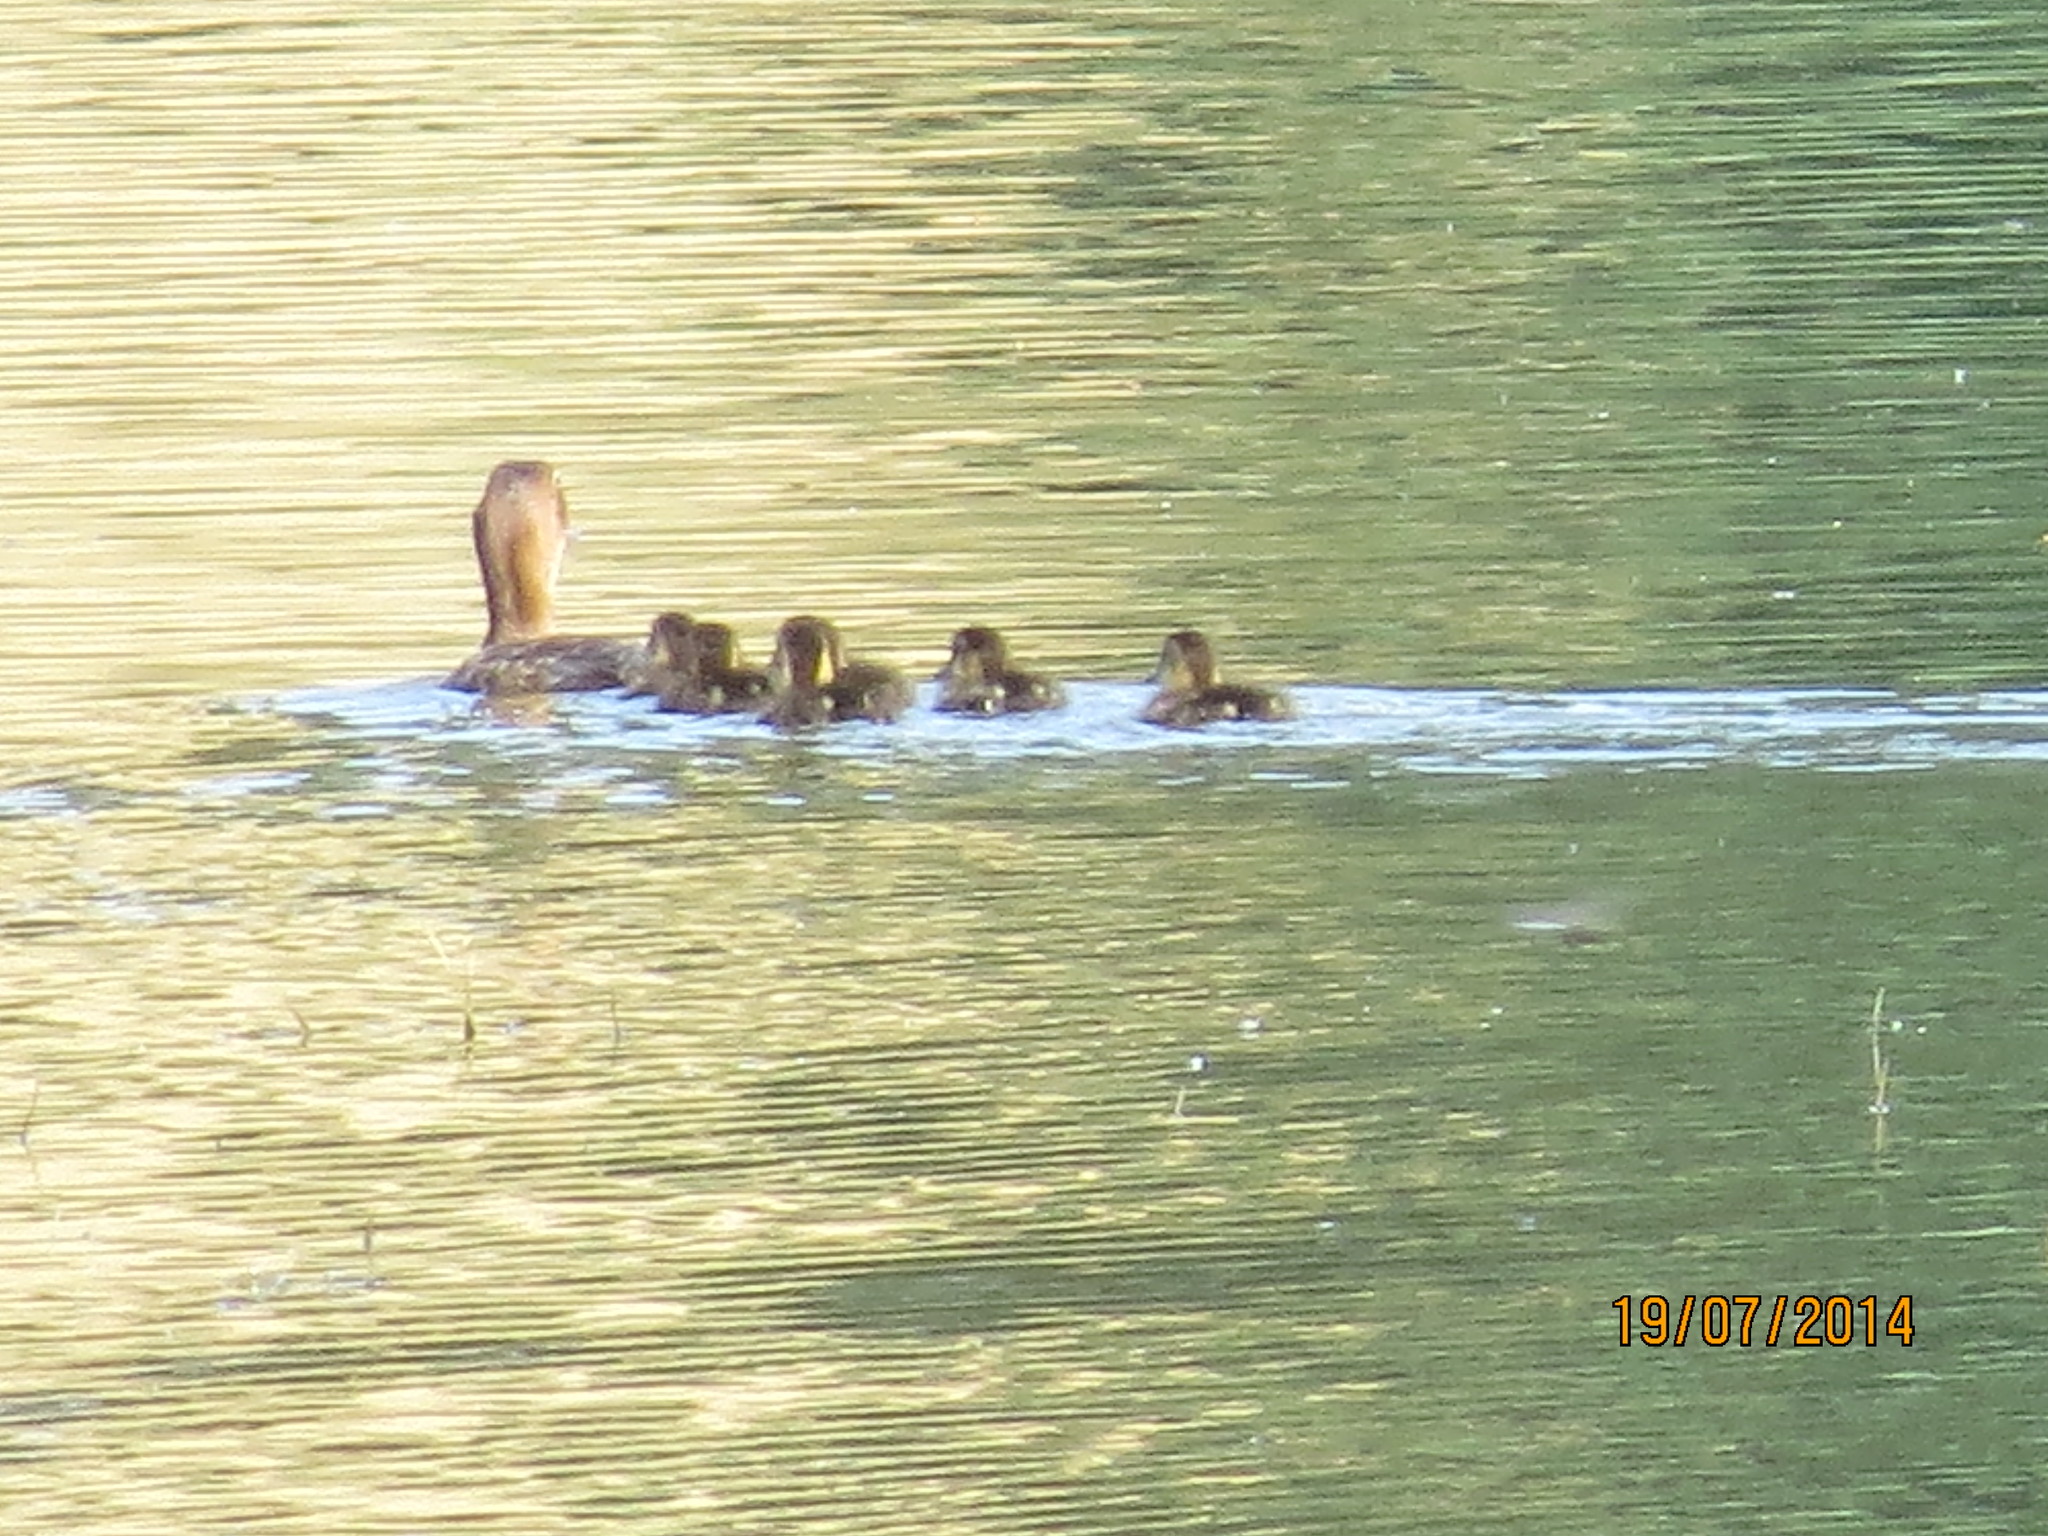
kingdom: Animalia
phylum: Chordata
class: Aves
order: Anseriformes
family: Anatidae
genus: Anas
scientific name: Anas platyrhynchos
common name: Mallard
